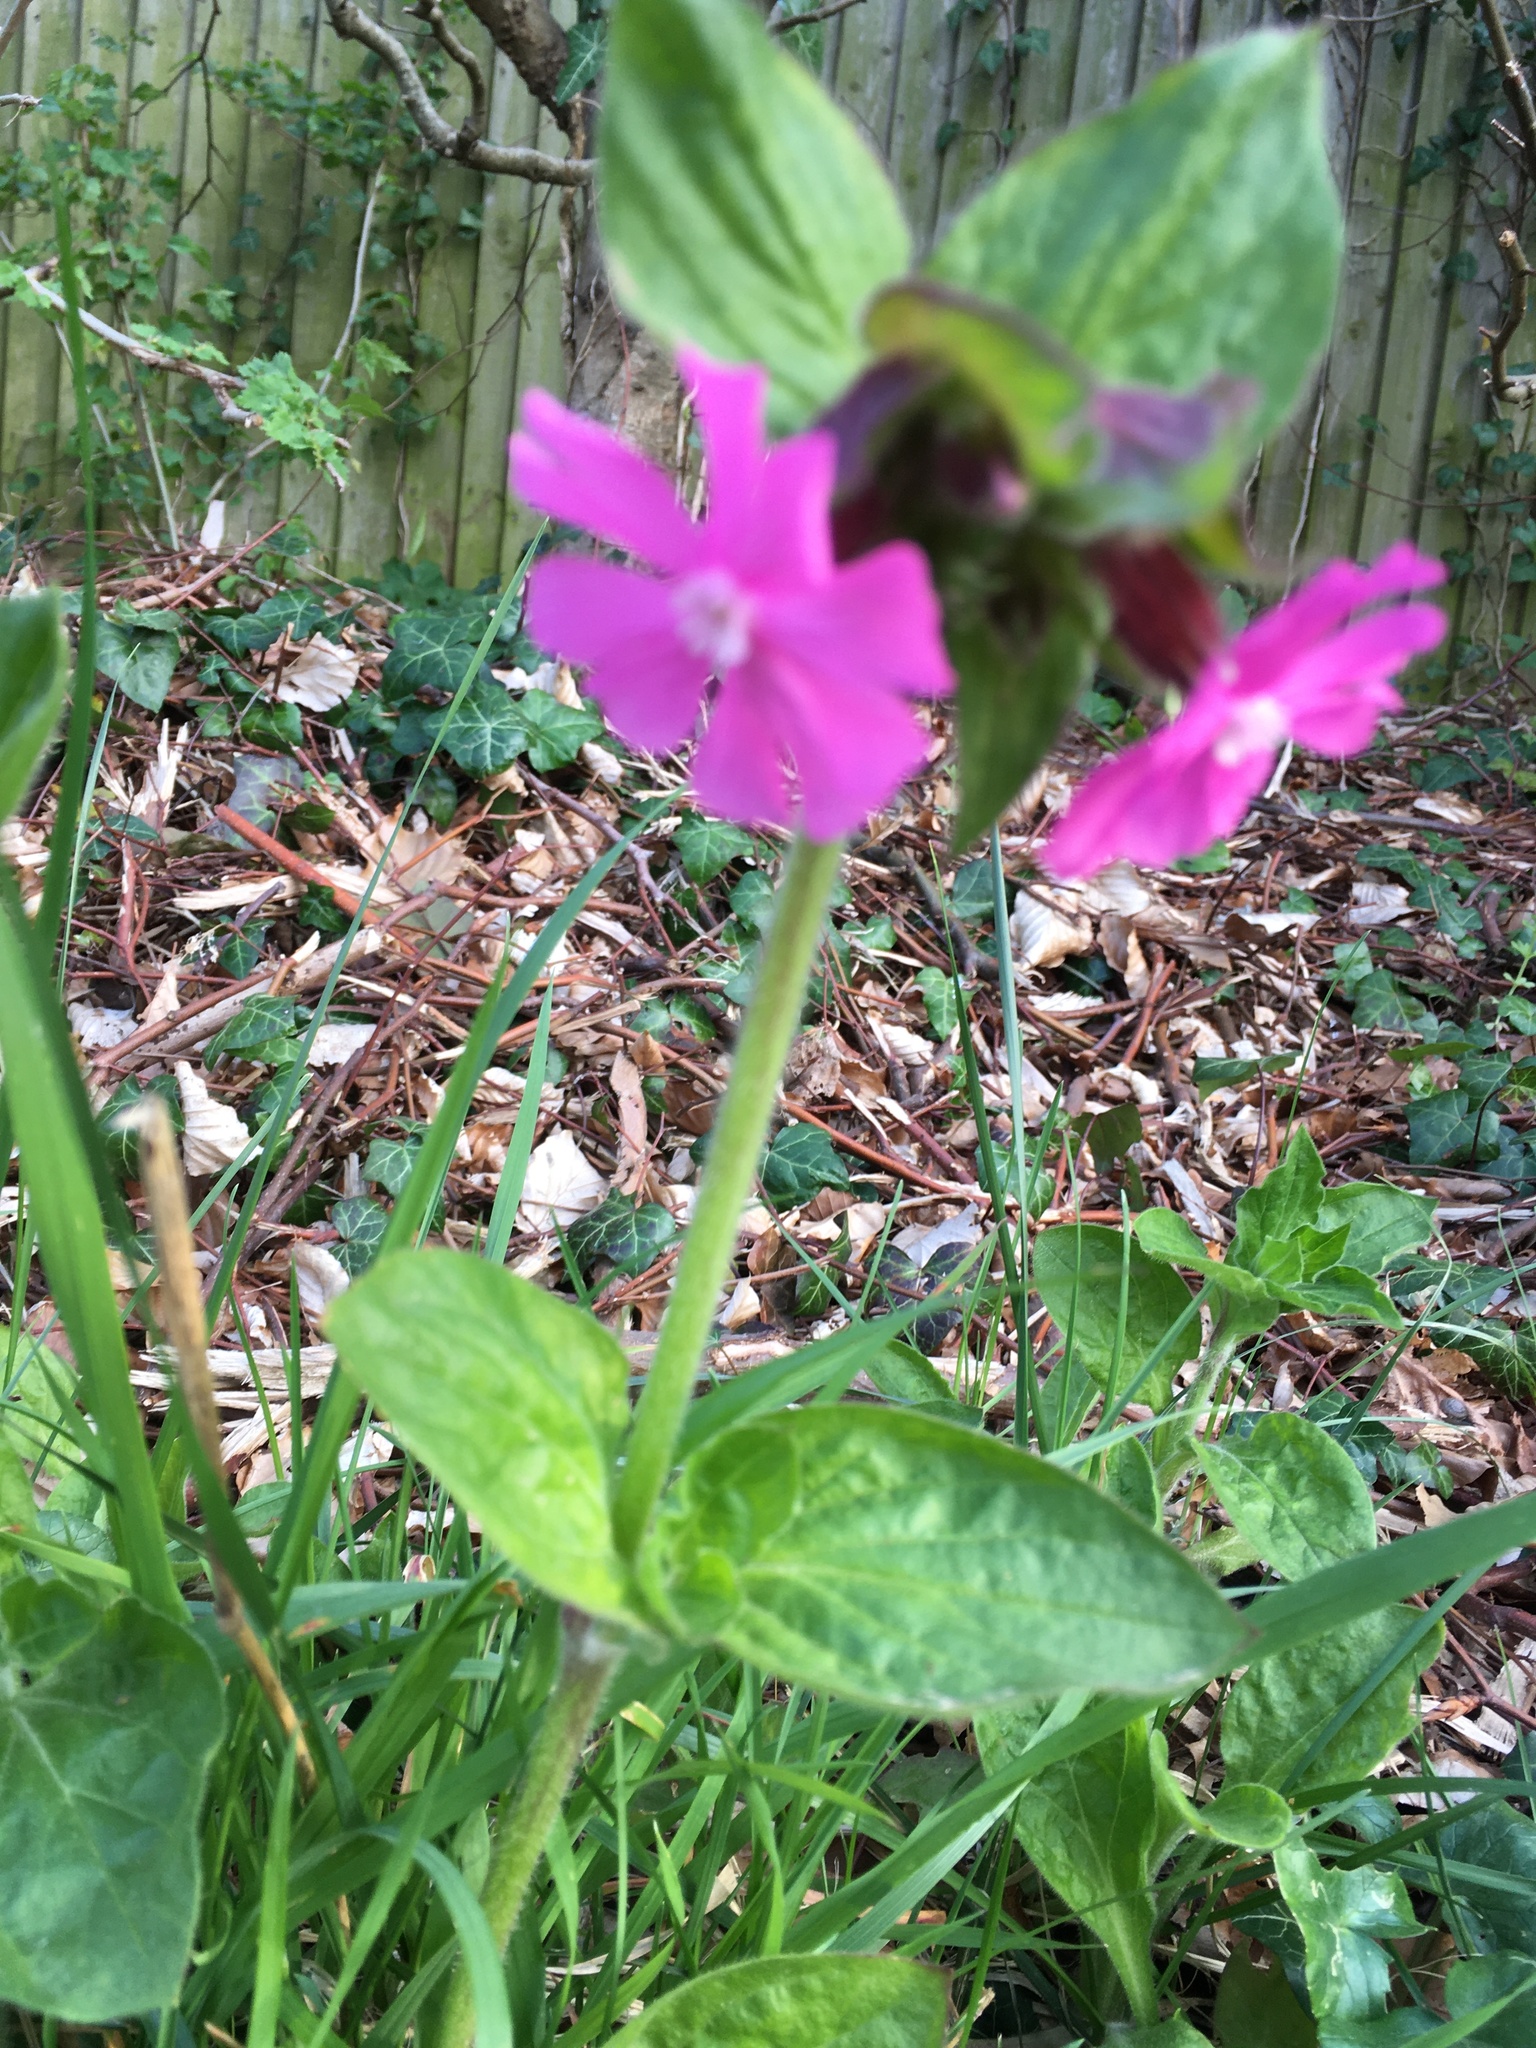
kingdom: Plantae
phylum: Tracheophyta
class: Magnoliopsida
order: Caryophyllales
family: Caryophyllaceae
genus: Silene
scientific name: Silene dioica
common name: Red campion
